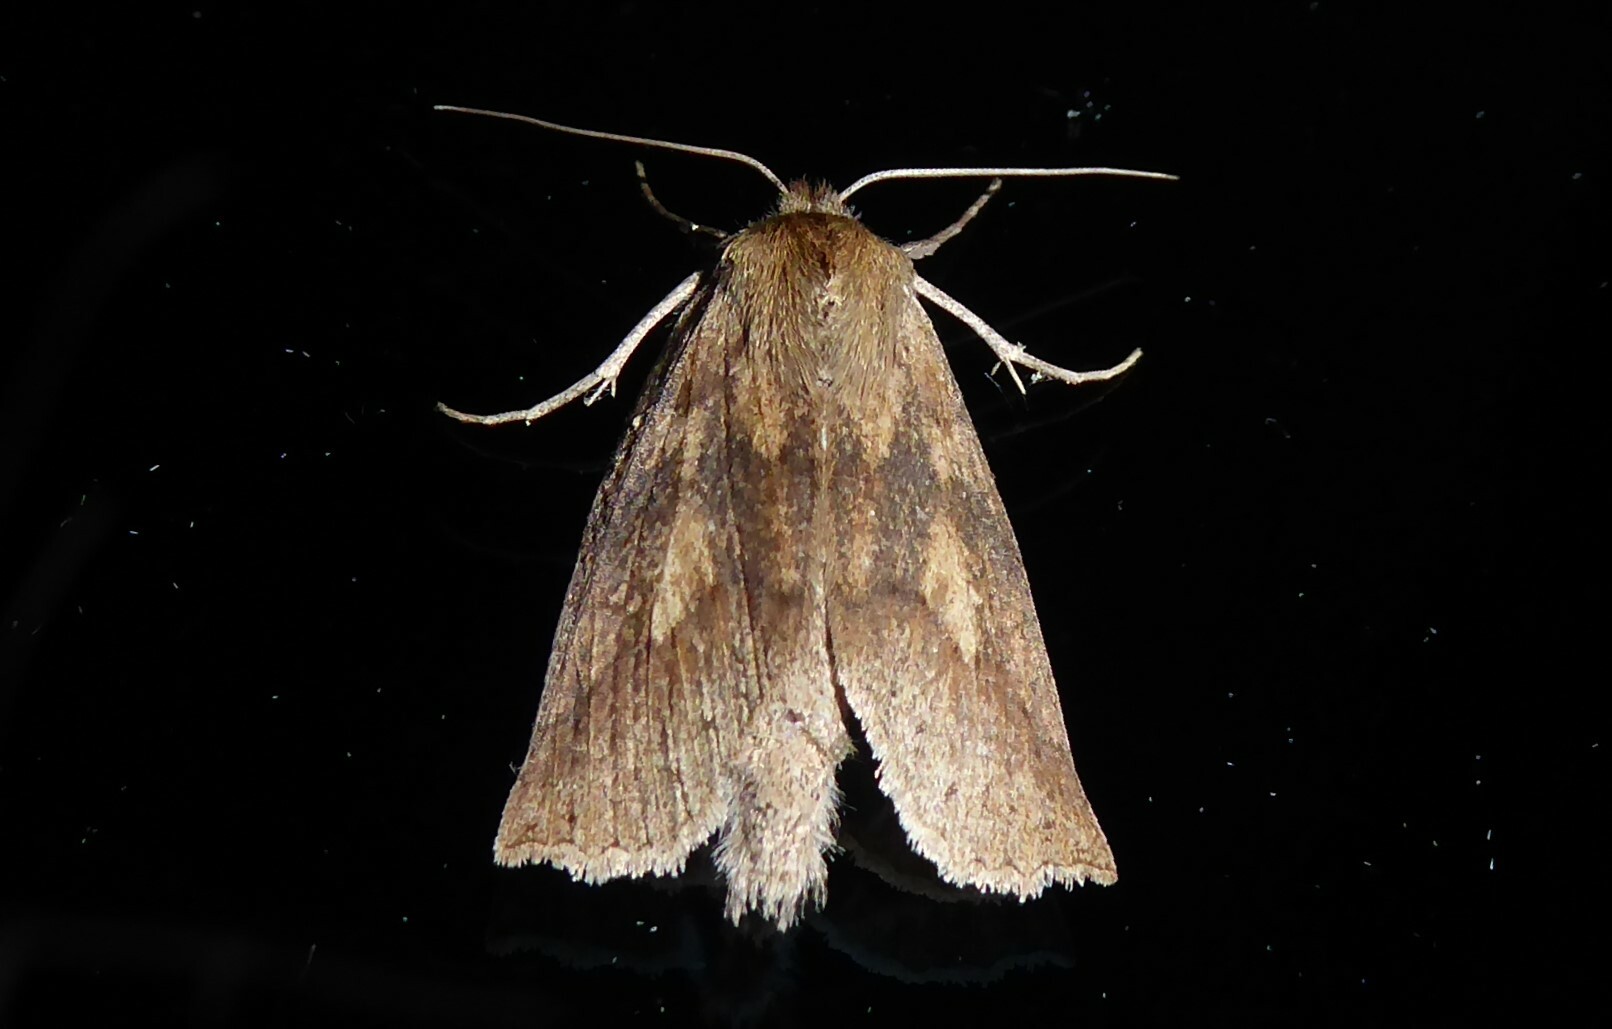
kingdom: Animalia
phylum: Arthropoda
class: Insecta
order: Lepidoptera
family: Geometridae
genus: Declana
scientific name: Declana leptomera
